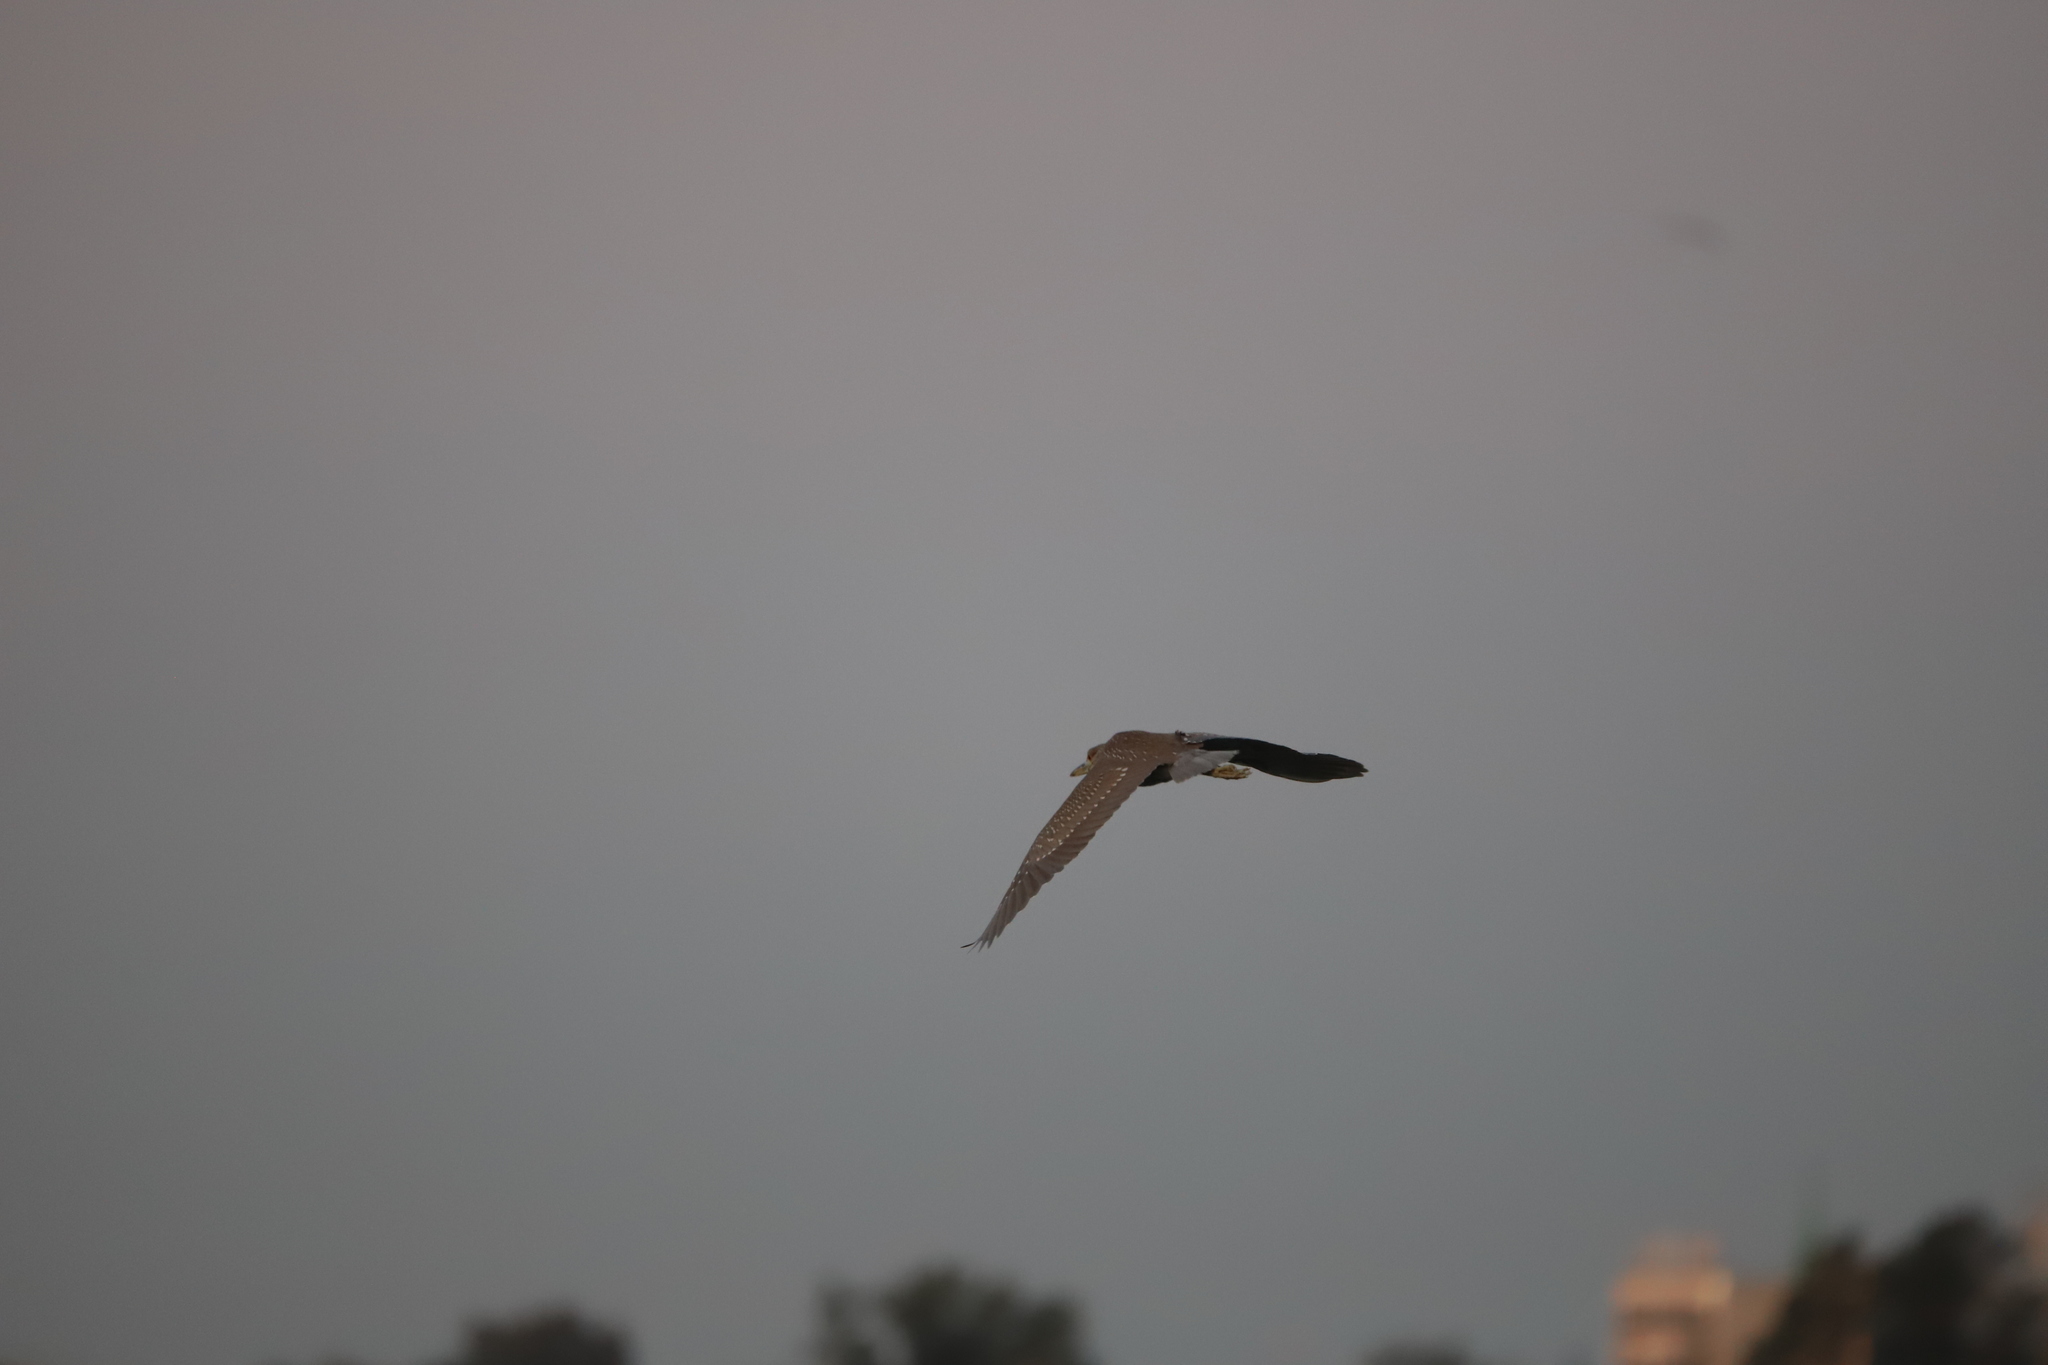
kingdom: Animalia
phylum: Chordata
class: Aves
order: Pelecaniformes
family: Ardeidae
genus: Nycticorax
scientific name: Nycticorax nycticorax
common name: Black-crowned night heron
